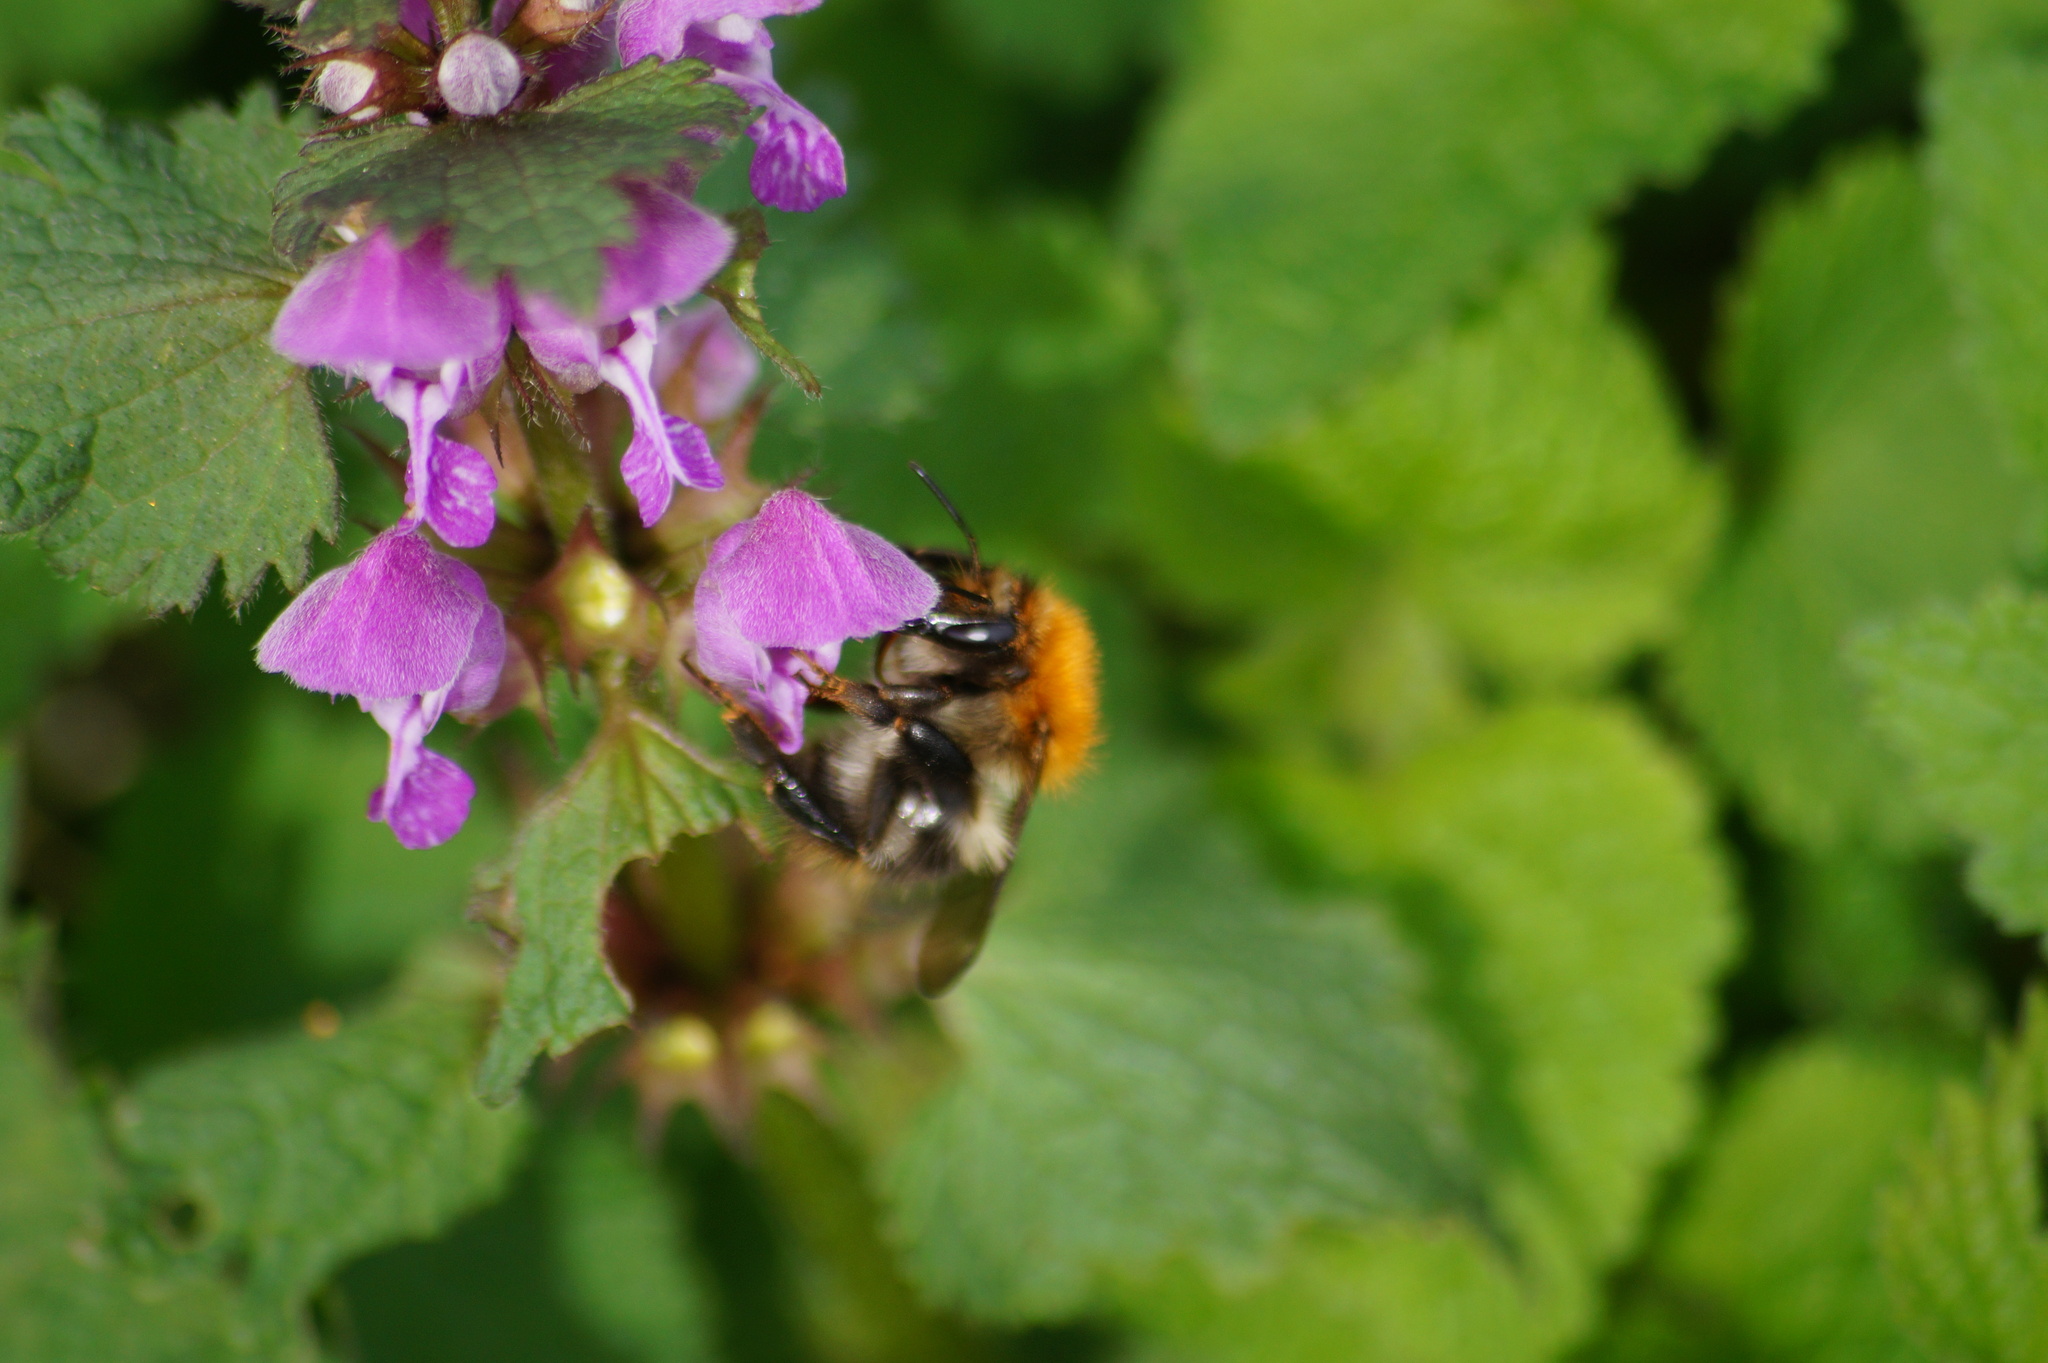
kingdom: Animalia
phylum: Arthropoda
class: Insecta
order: Hymenoptera
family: Apidae
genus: Bombus
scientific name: Bombus pascuorum
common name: Common carder bee
